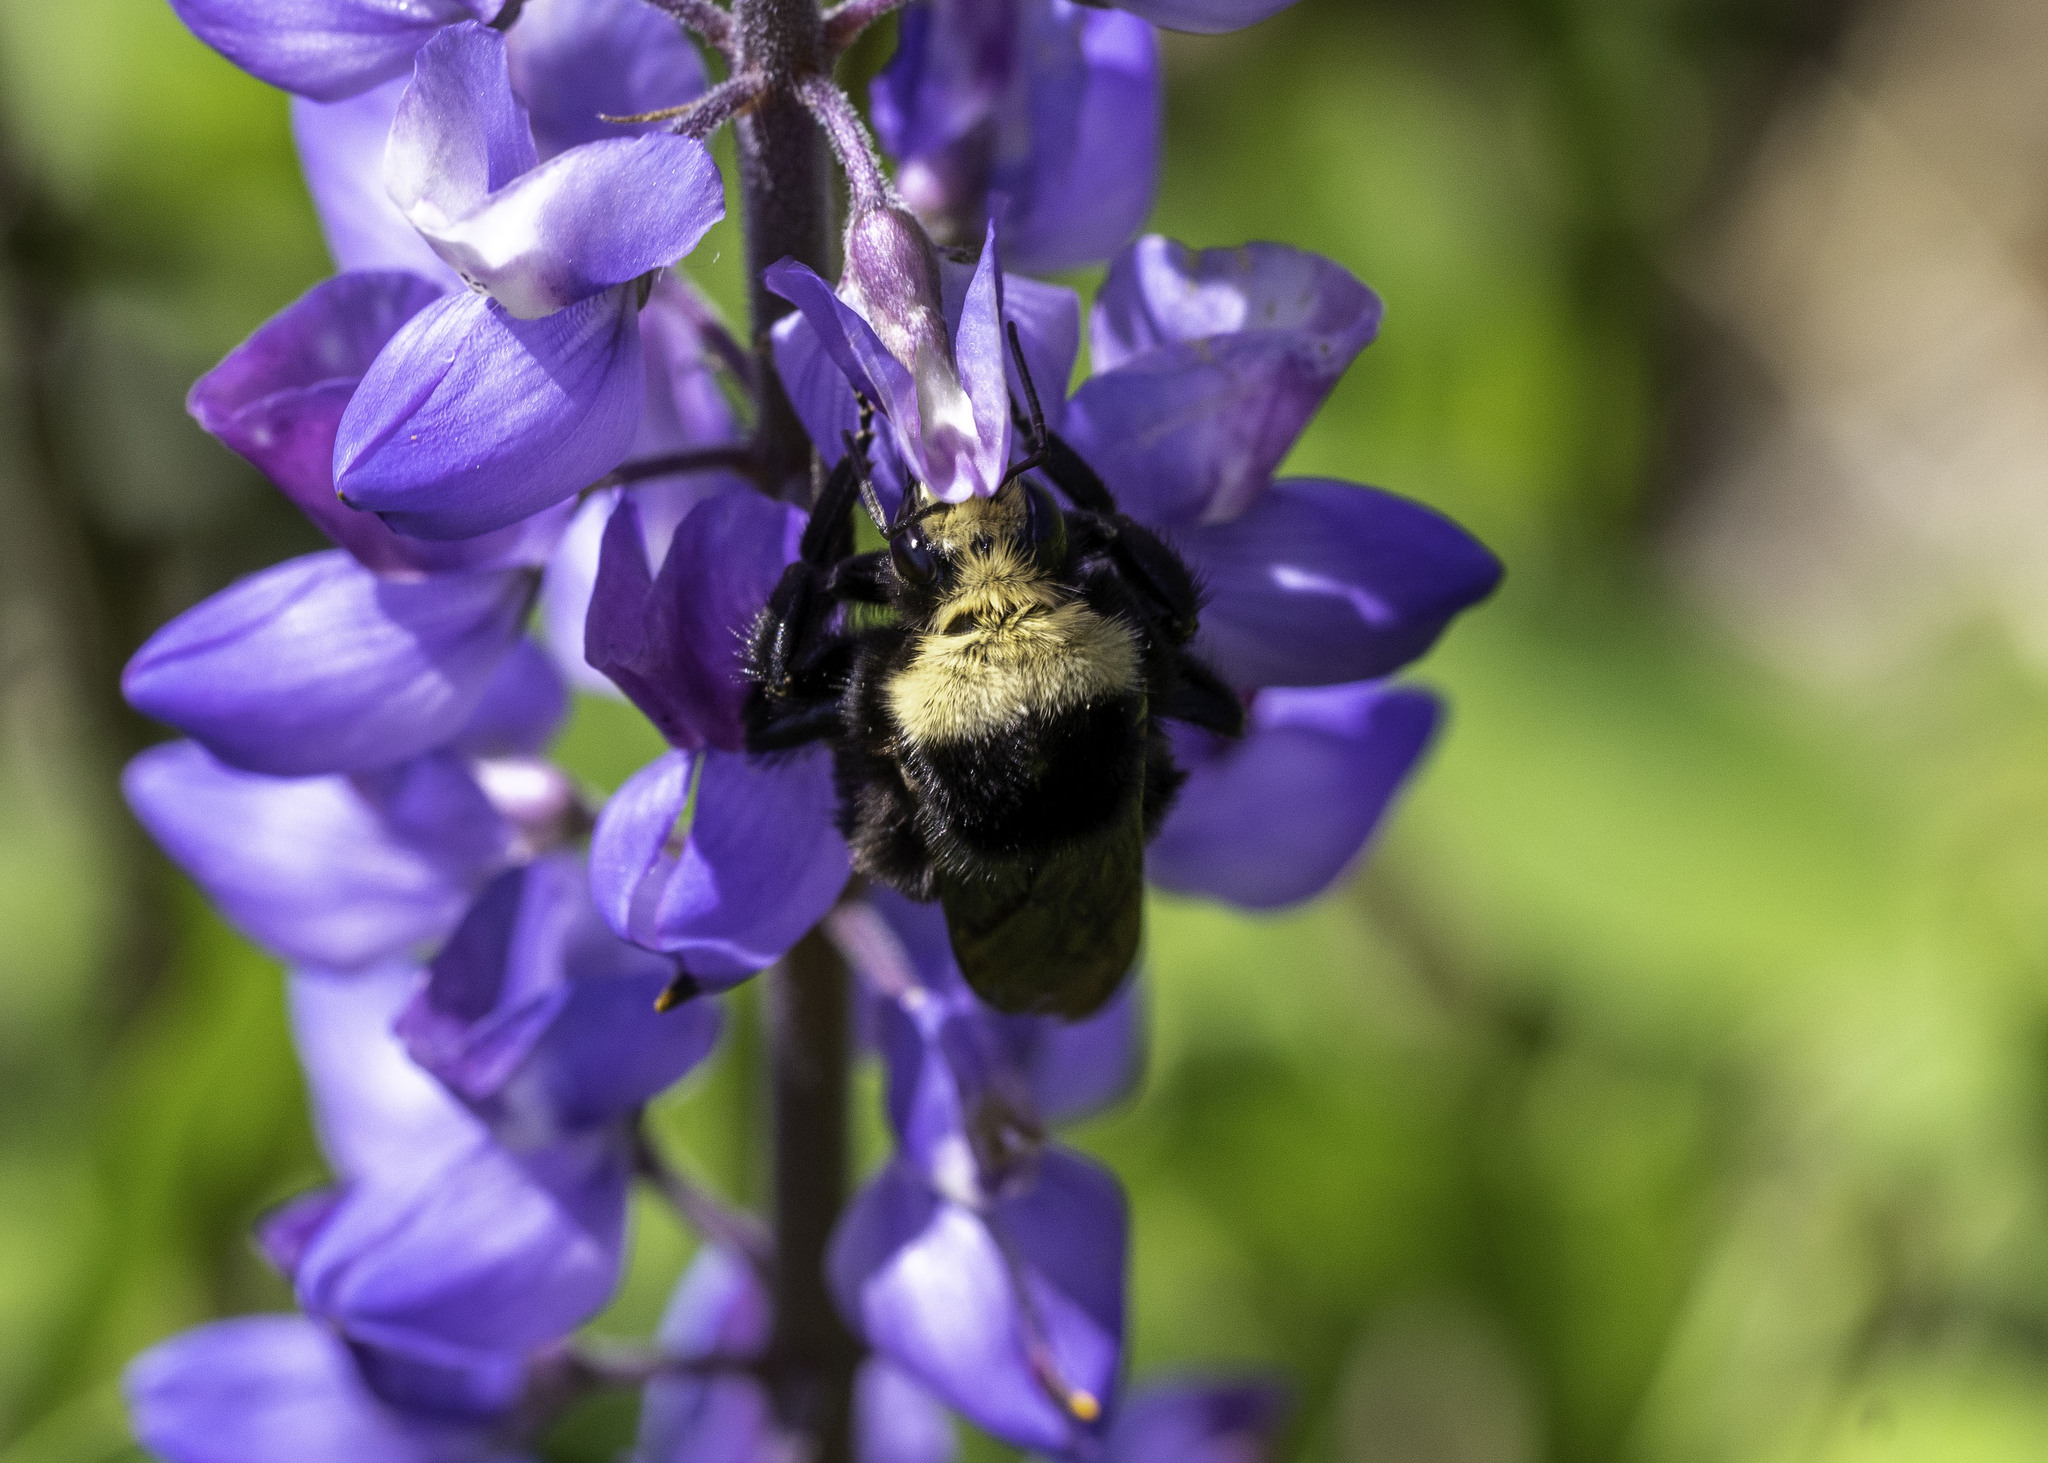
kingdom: Animalia
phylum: Arthropoda
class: Insecta
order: Hymenoptera
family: Apidae
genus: Bombus
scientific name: Bombus vosnesenskii
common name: Vosnesensky bumble bee
